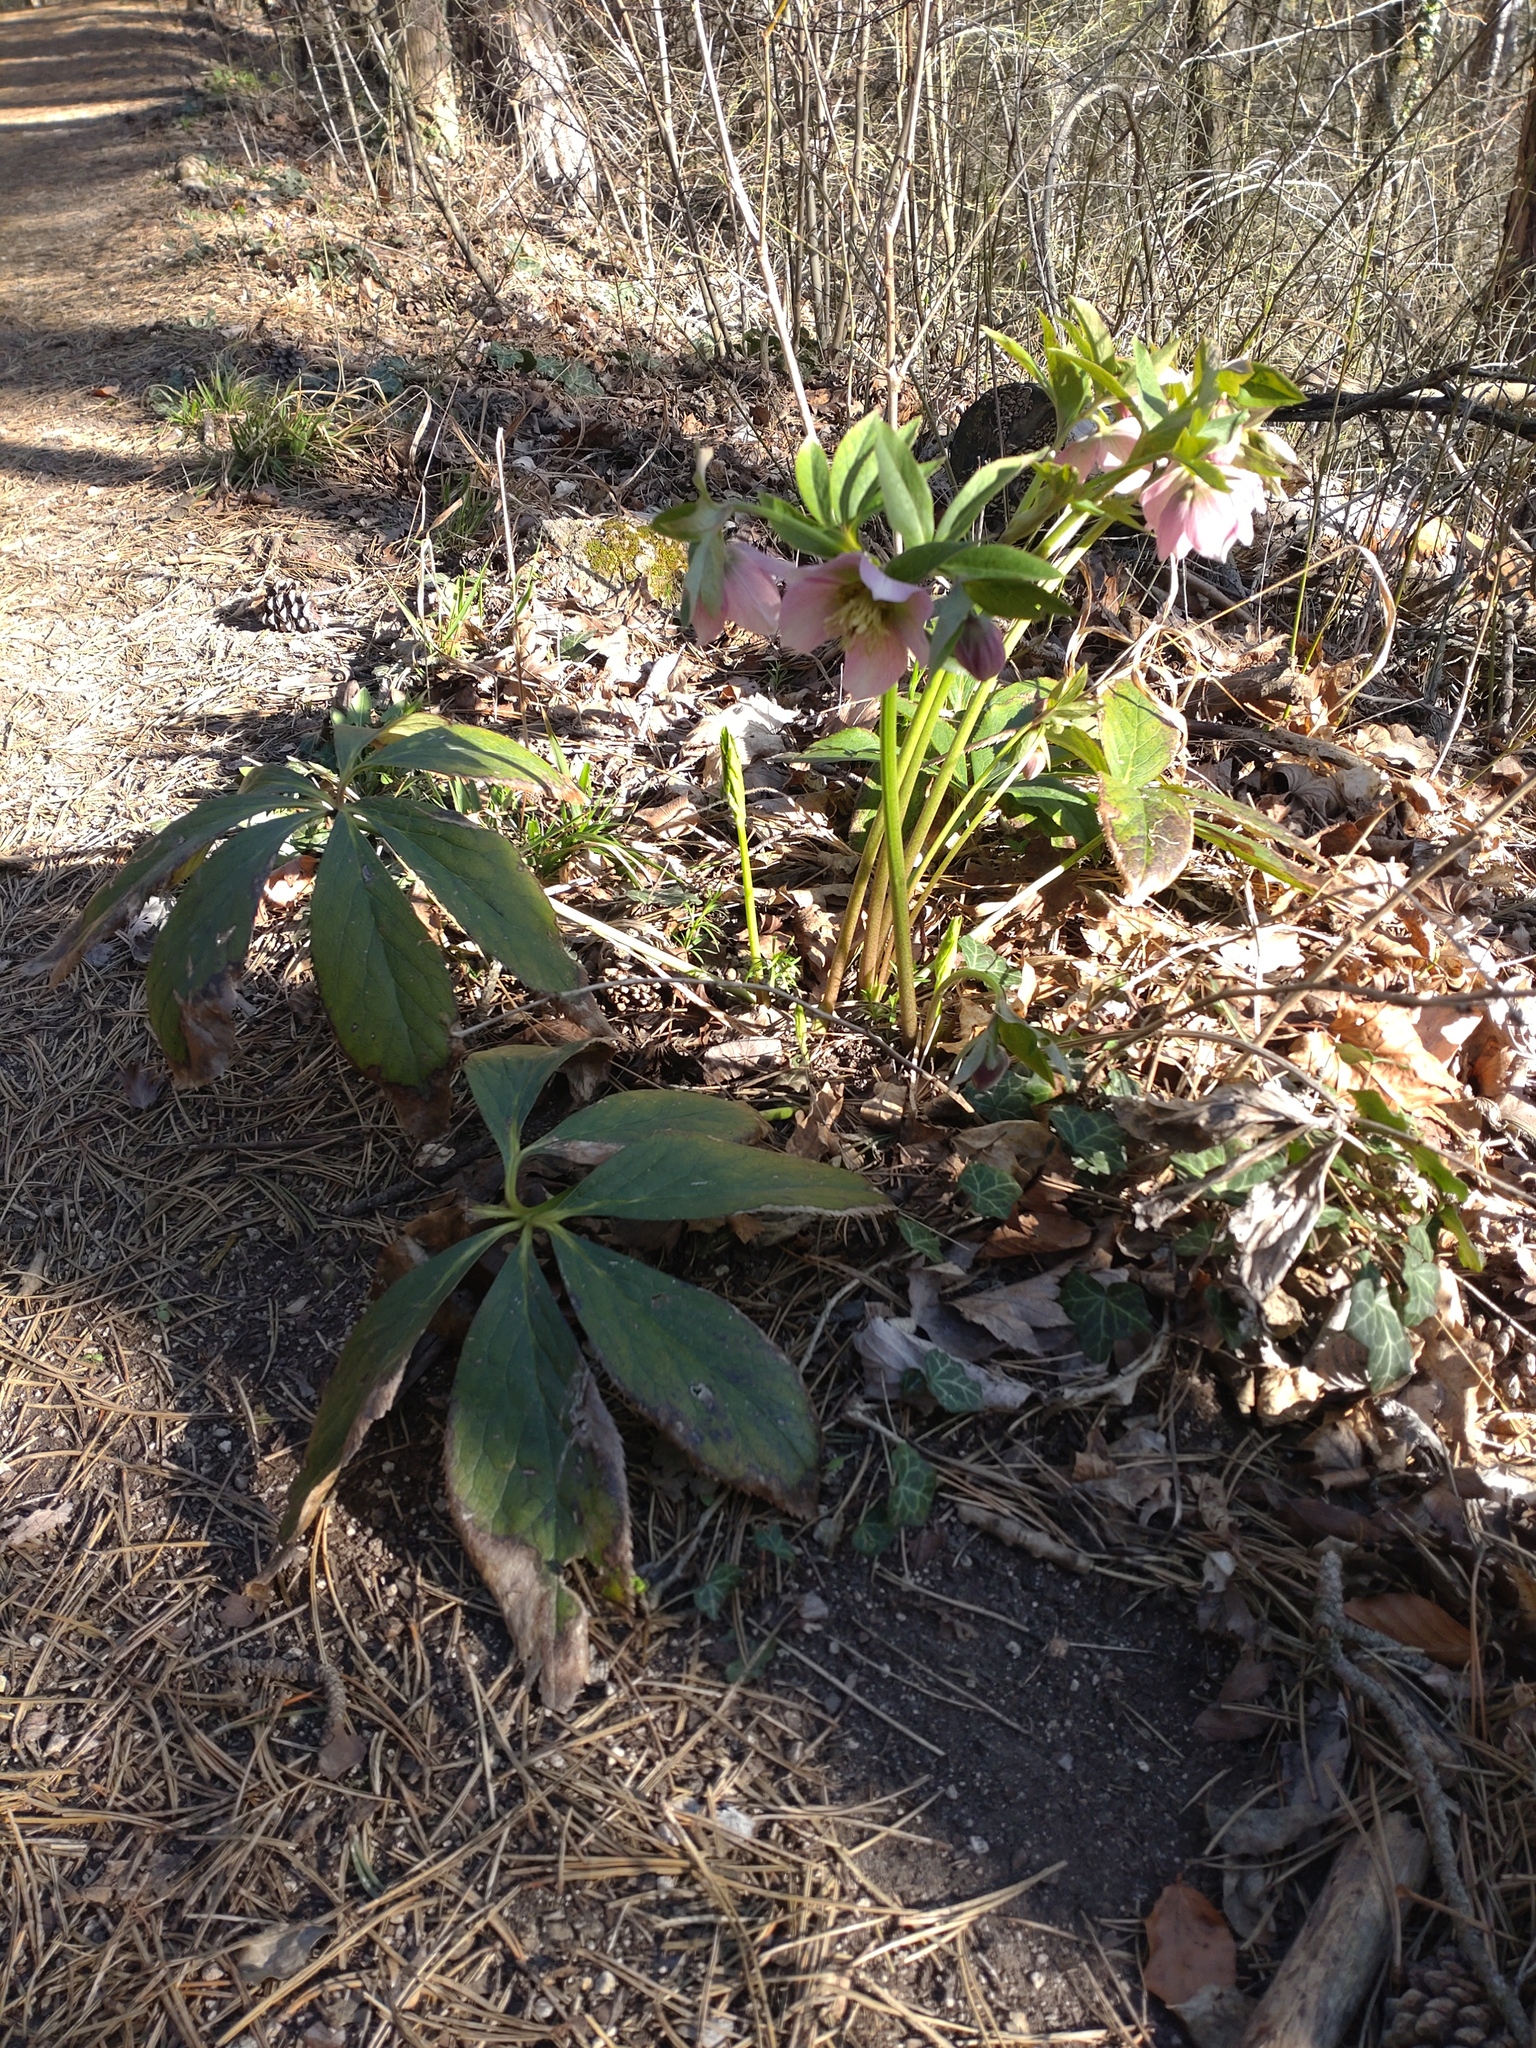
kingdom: Plantae
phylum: Tracheophyta
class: Magnoliopsida
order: Ranunculales
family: Ranunculaceae
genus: Helleborus
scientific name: Helleborus hybridus
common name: Hybrid lenten-rose
